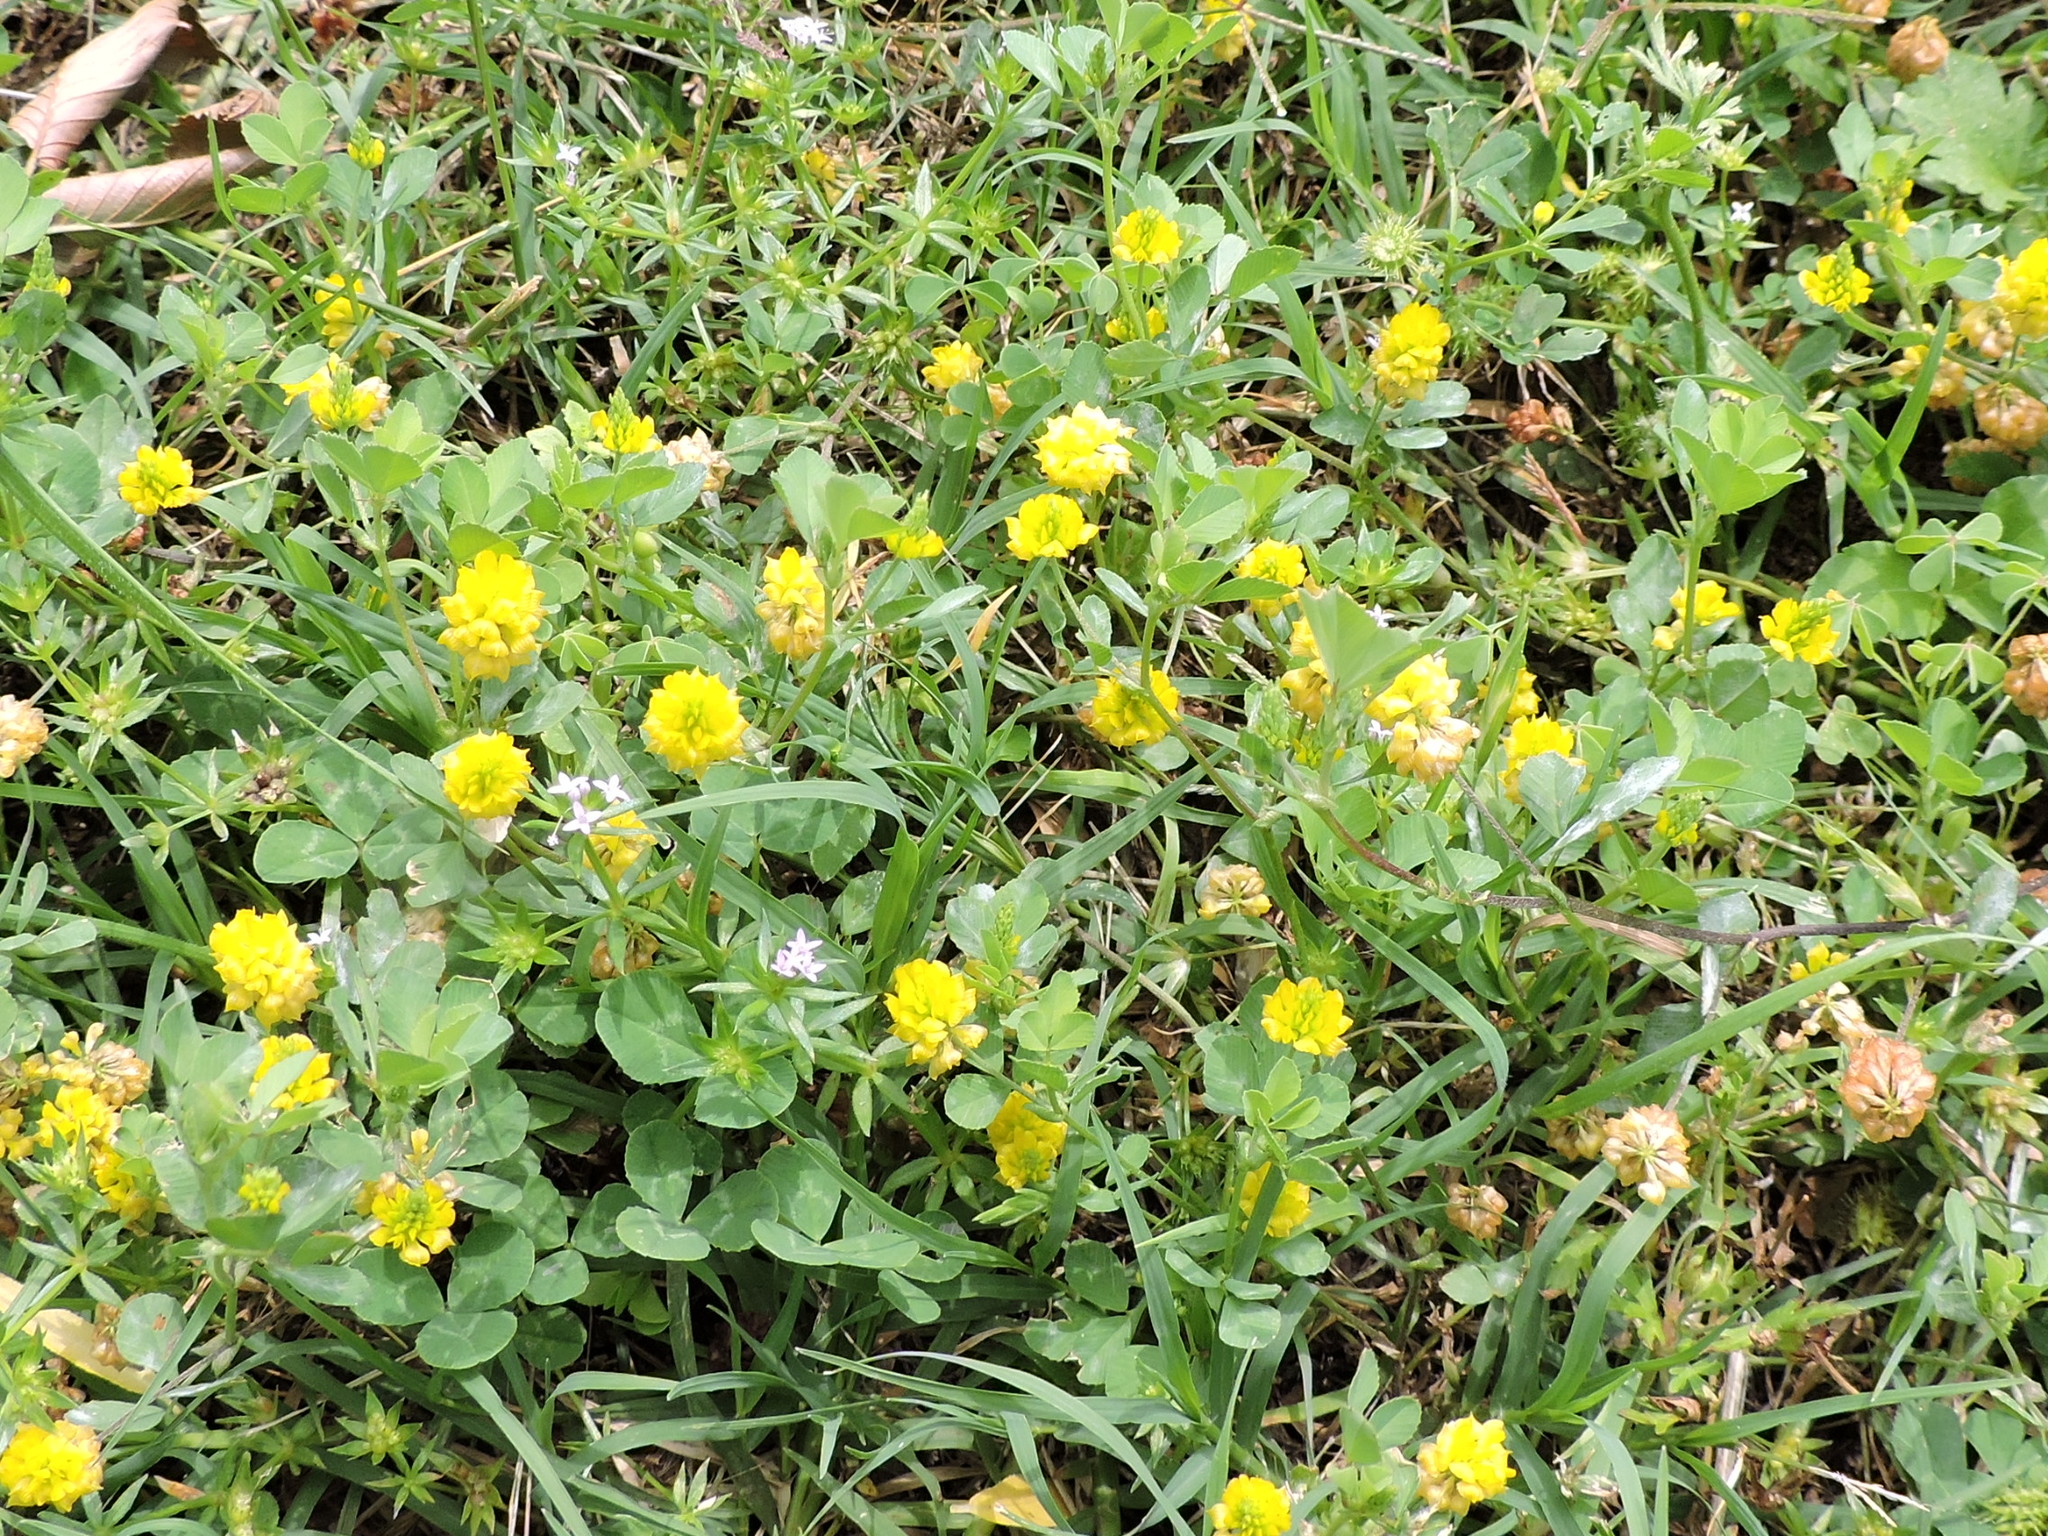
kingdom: Plantae
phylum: Tracheophyta
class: Magnoliopsida
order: Fabales
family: Fabaceae
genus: Trifolium
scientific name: Trifolium campestre
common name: Field clover
